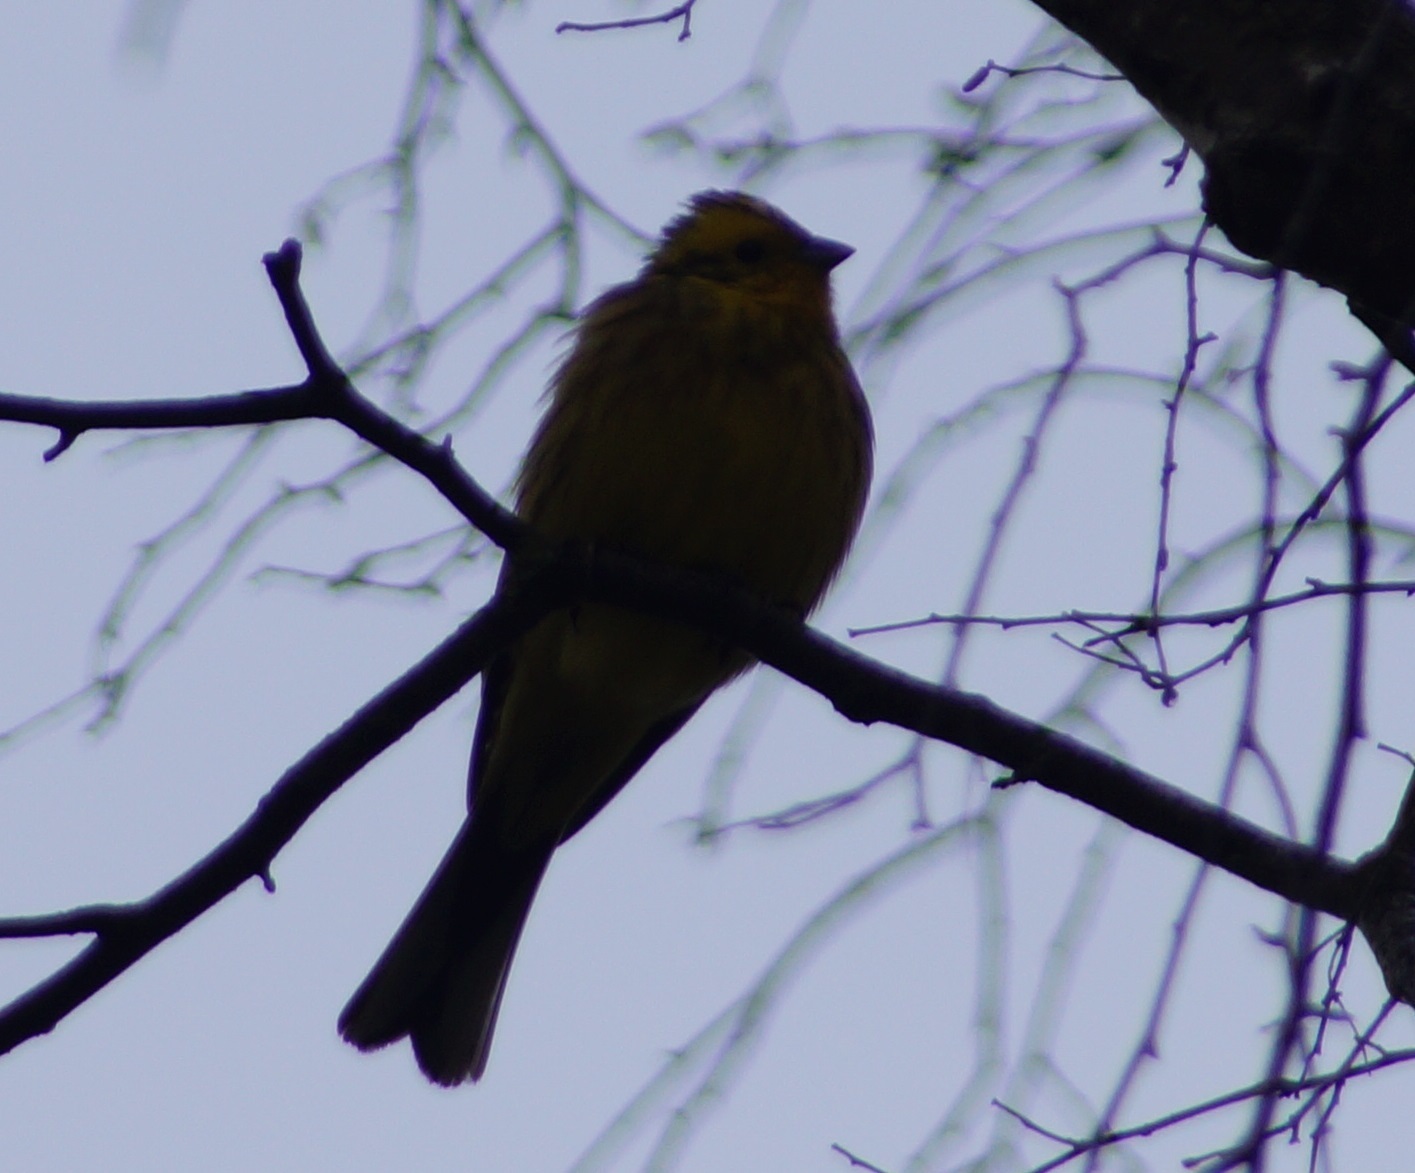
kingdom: Animalia
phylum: Chordata
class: Aves
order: Passeriformes
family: Emberizidae
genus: Emberiza
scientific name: Emberiza citrinella
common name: Yellowhammer
